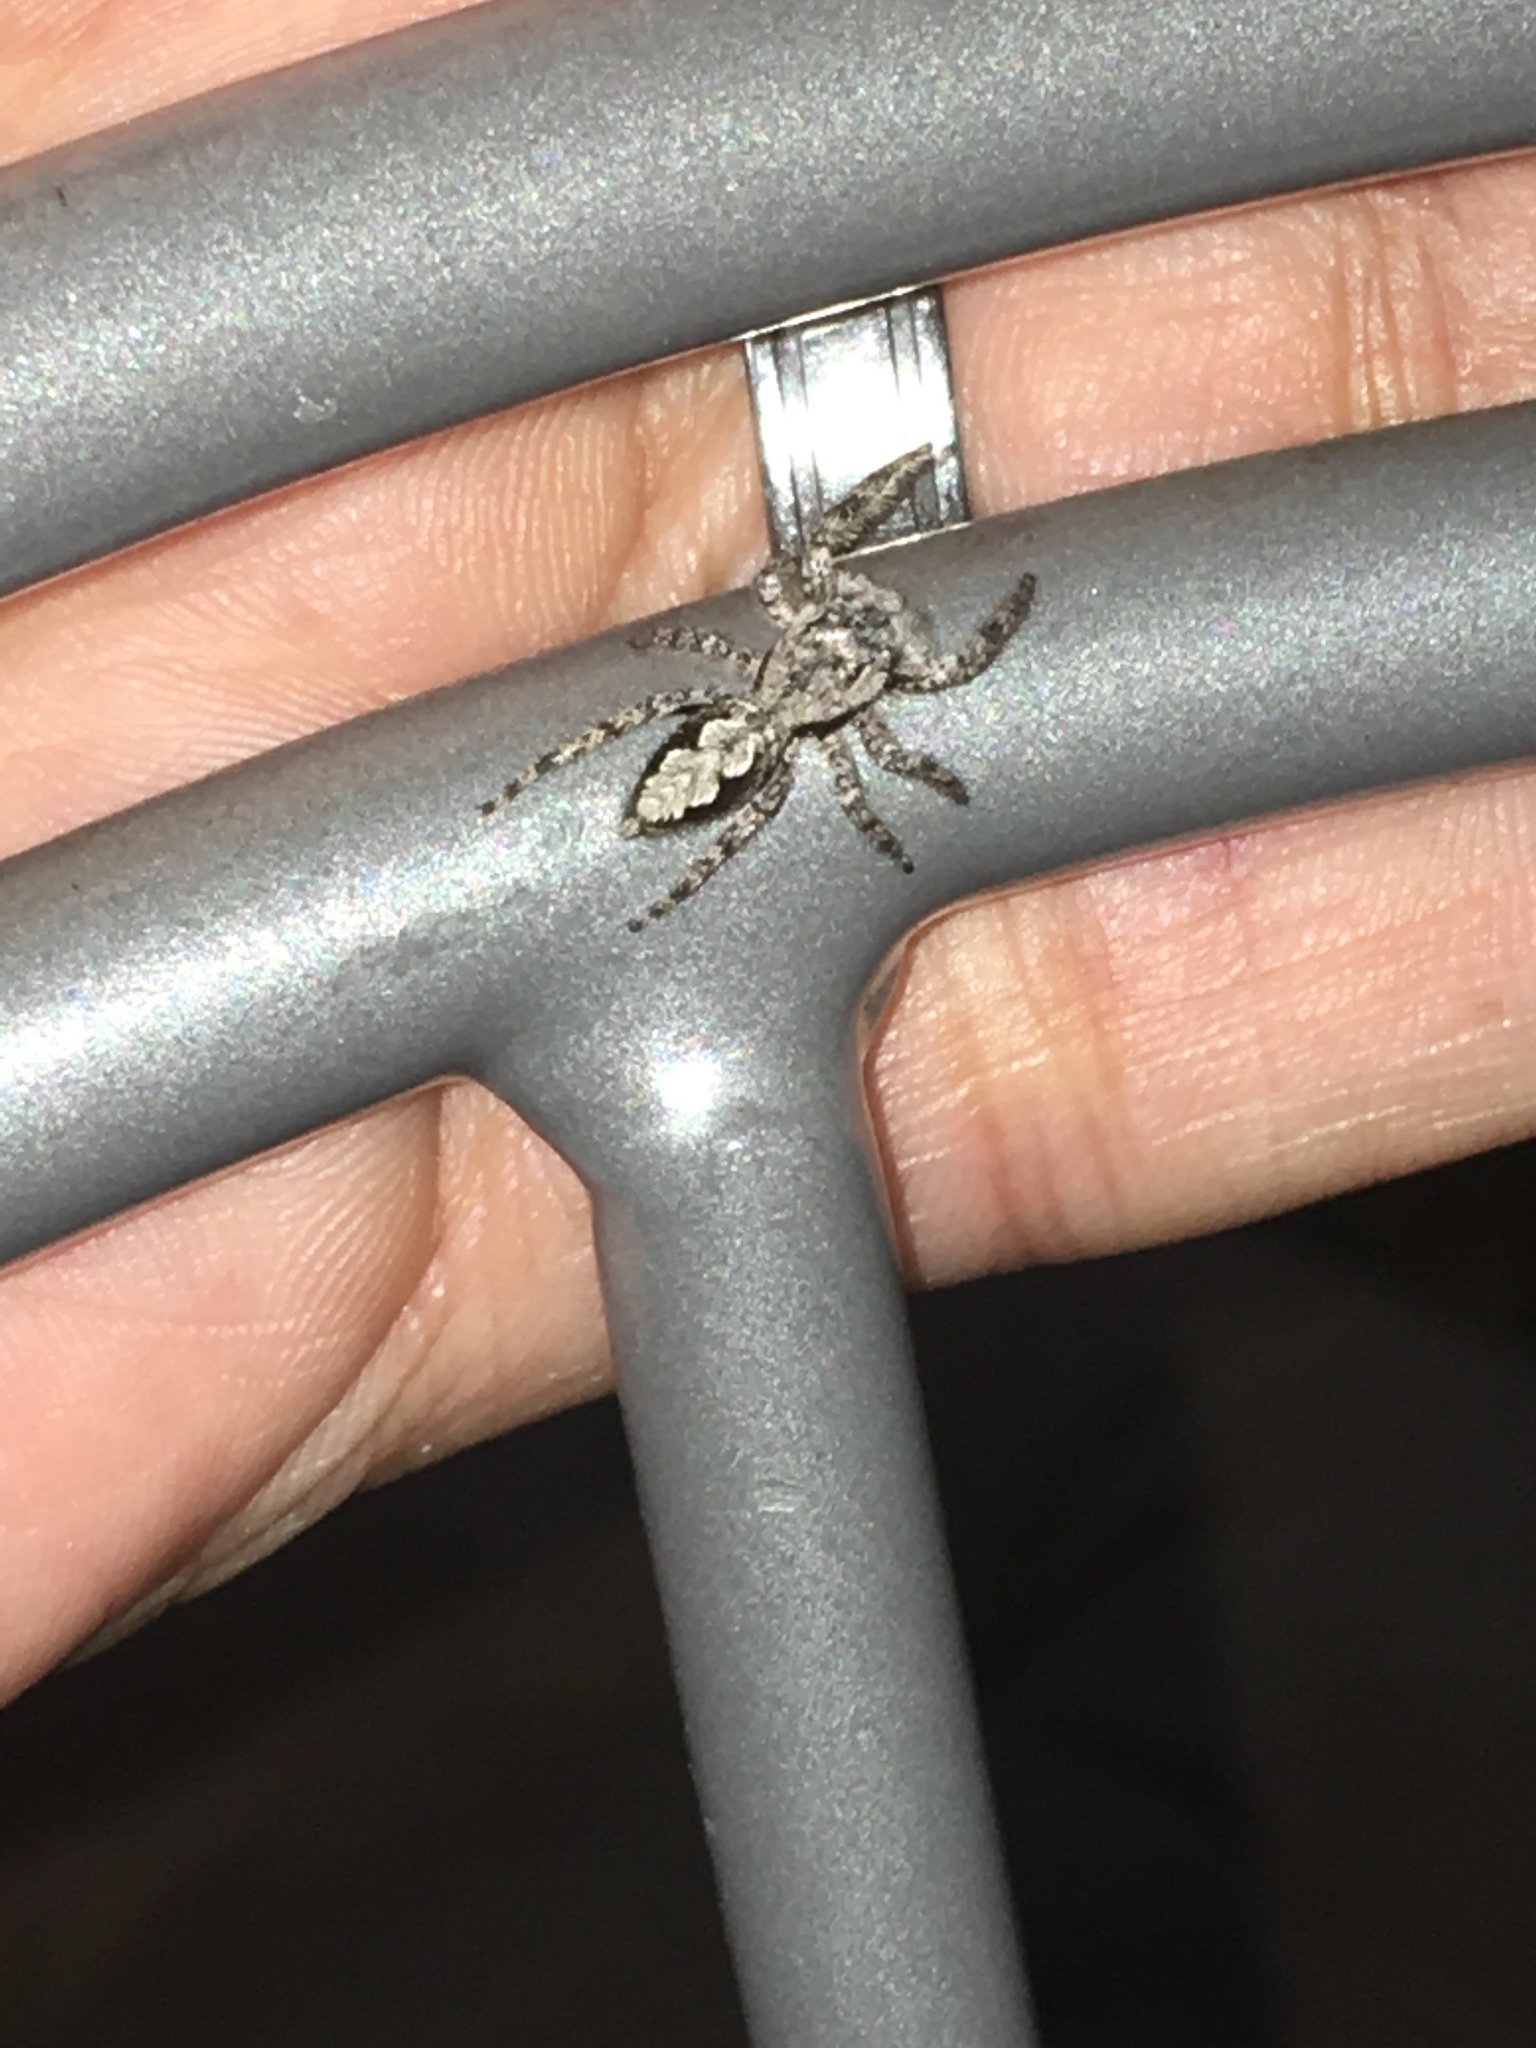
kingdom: Animalia
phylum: Arthropoda
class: Arachnida
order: Araneae
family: Salticidae
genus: Platycryptus
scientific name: Platycryptus undatus
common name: Tan jumping spider
